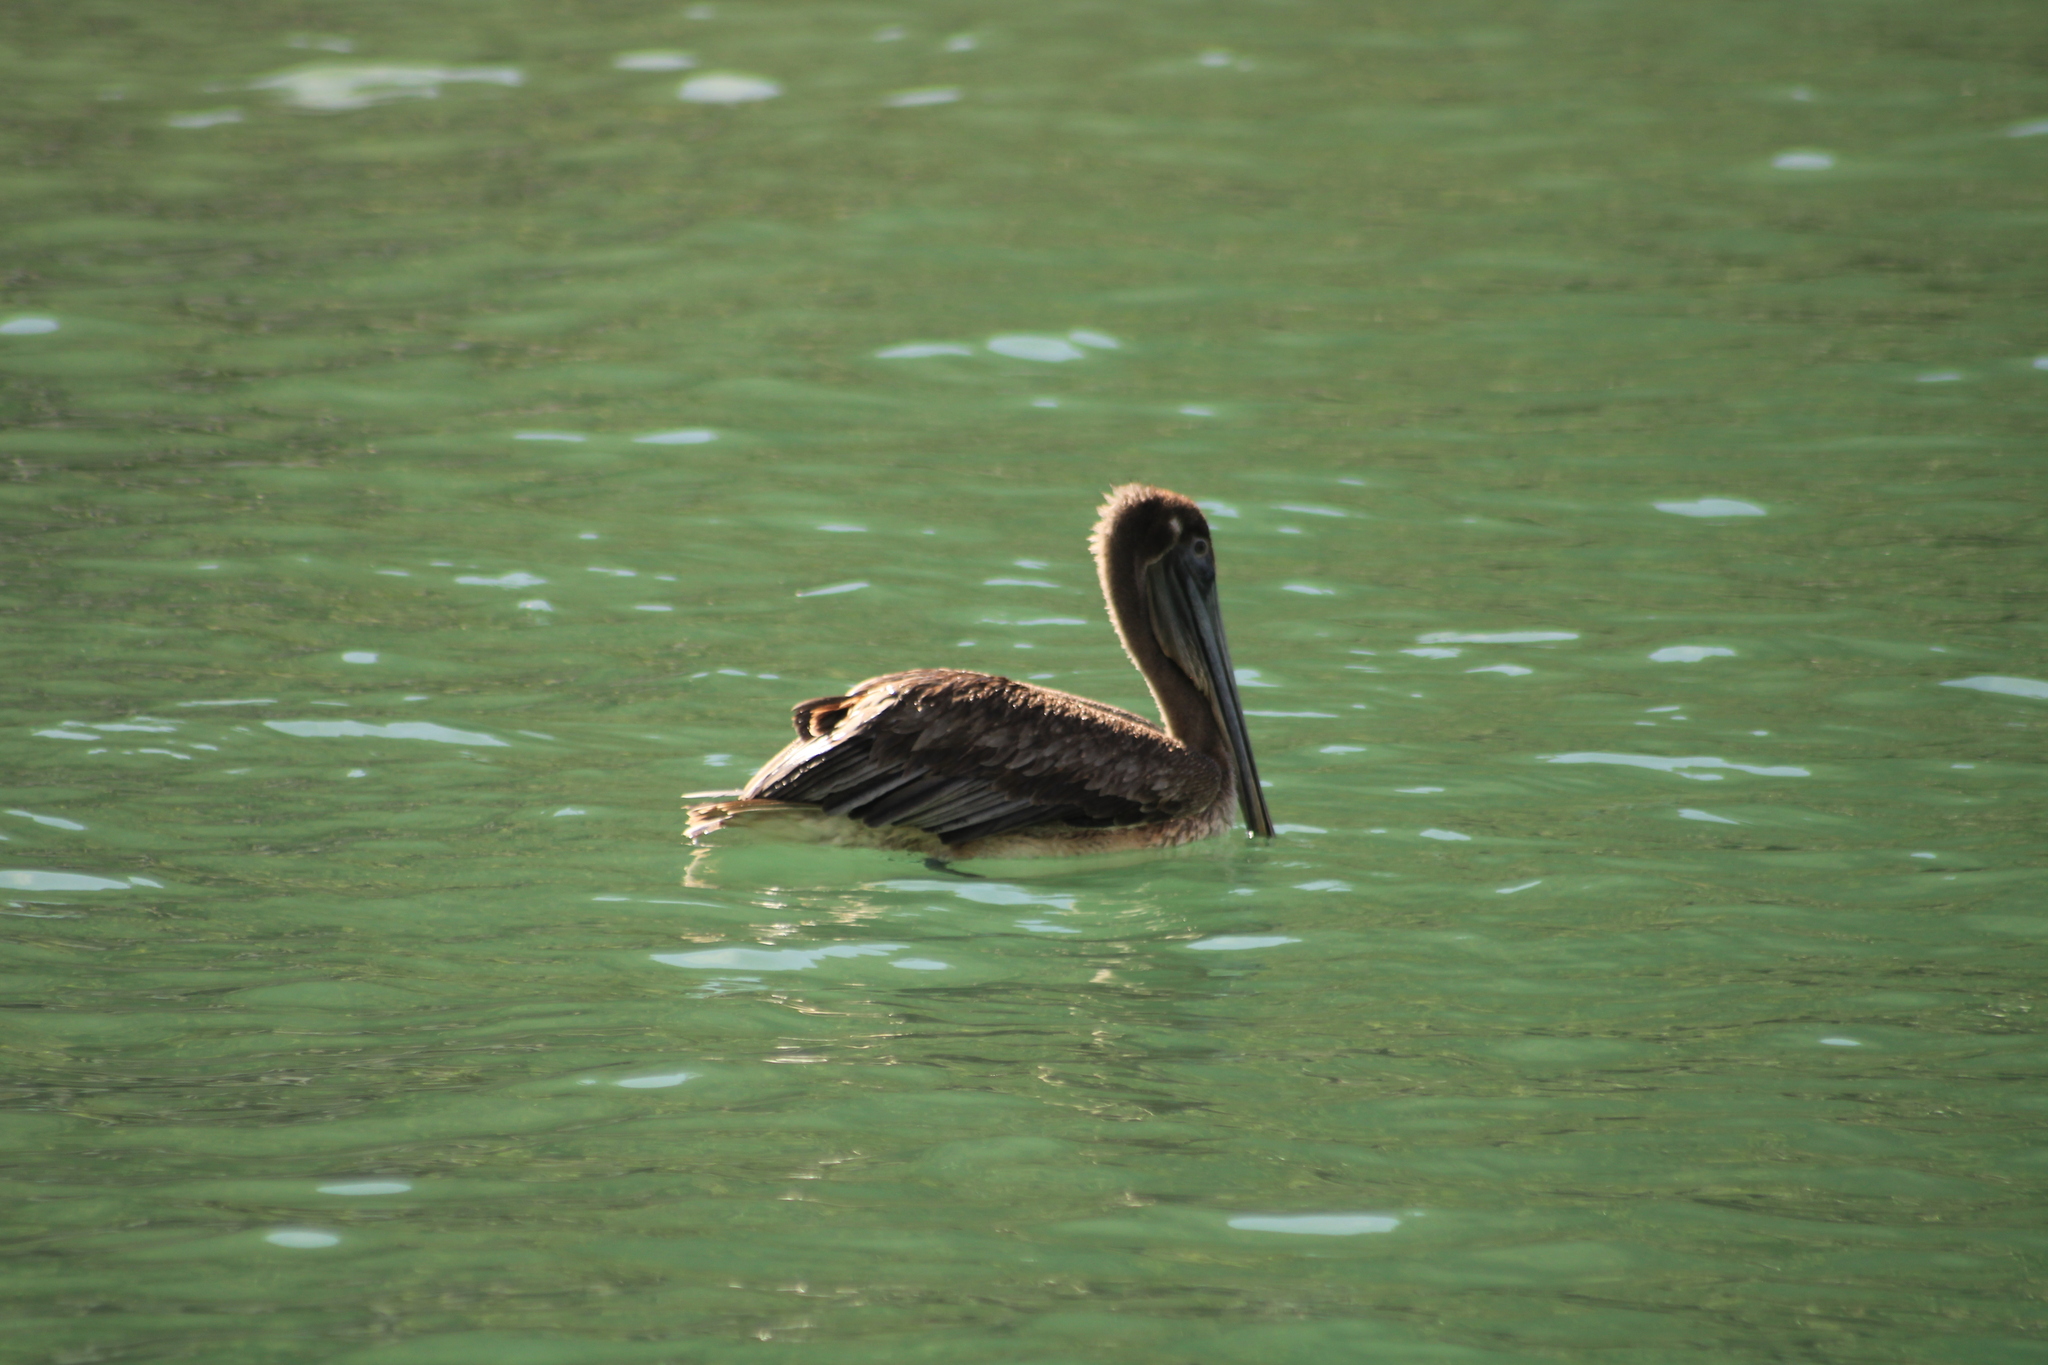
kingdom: Animalia
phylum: Chordata
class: Aves
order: Pelecaniformes
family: Pelecanidae
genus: Pelecanus
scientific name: Pelecanus occidentalis
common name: Brown pelican
